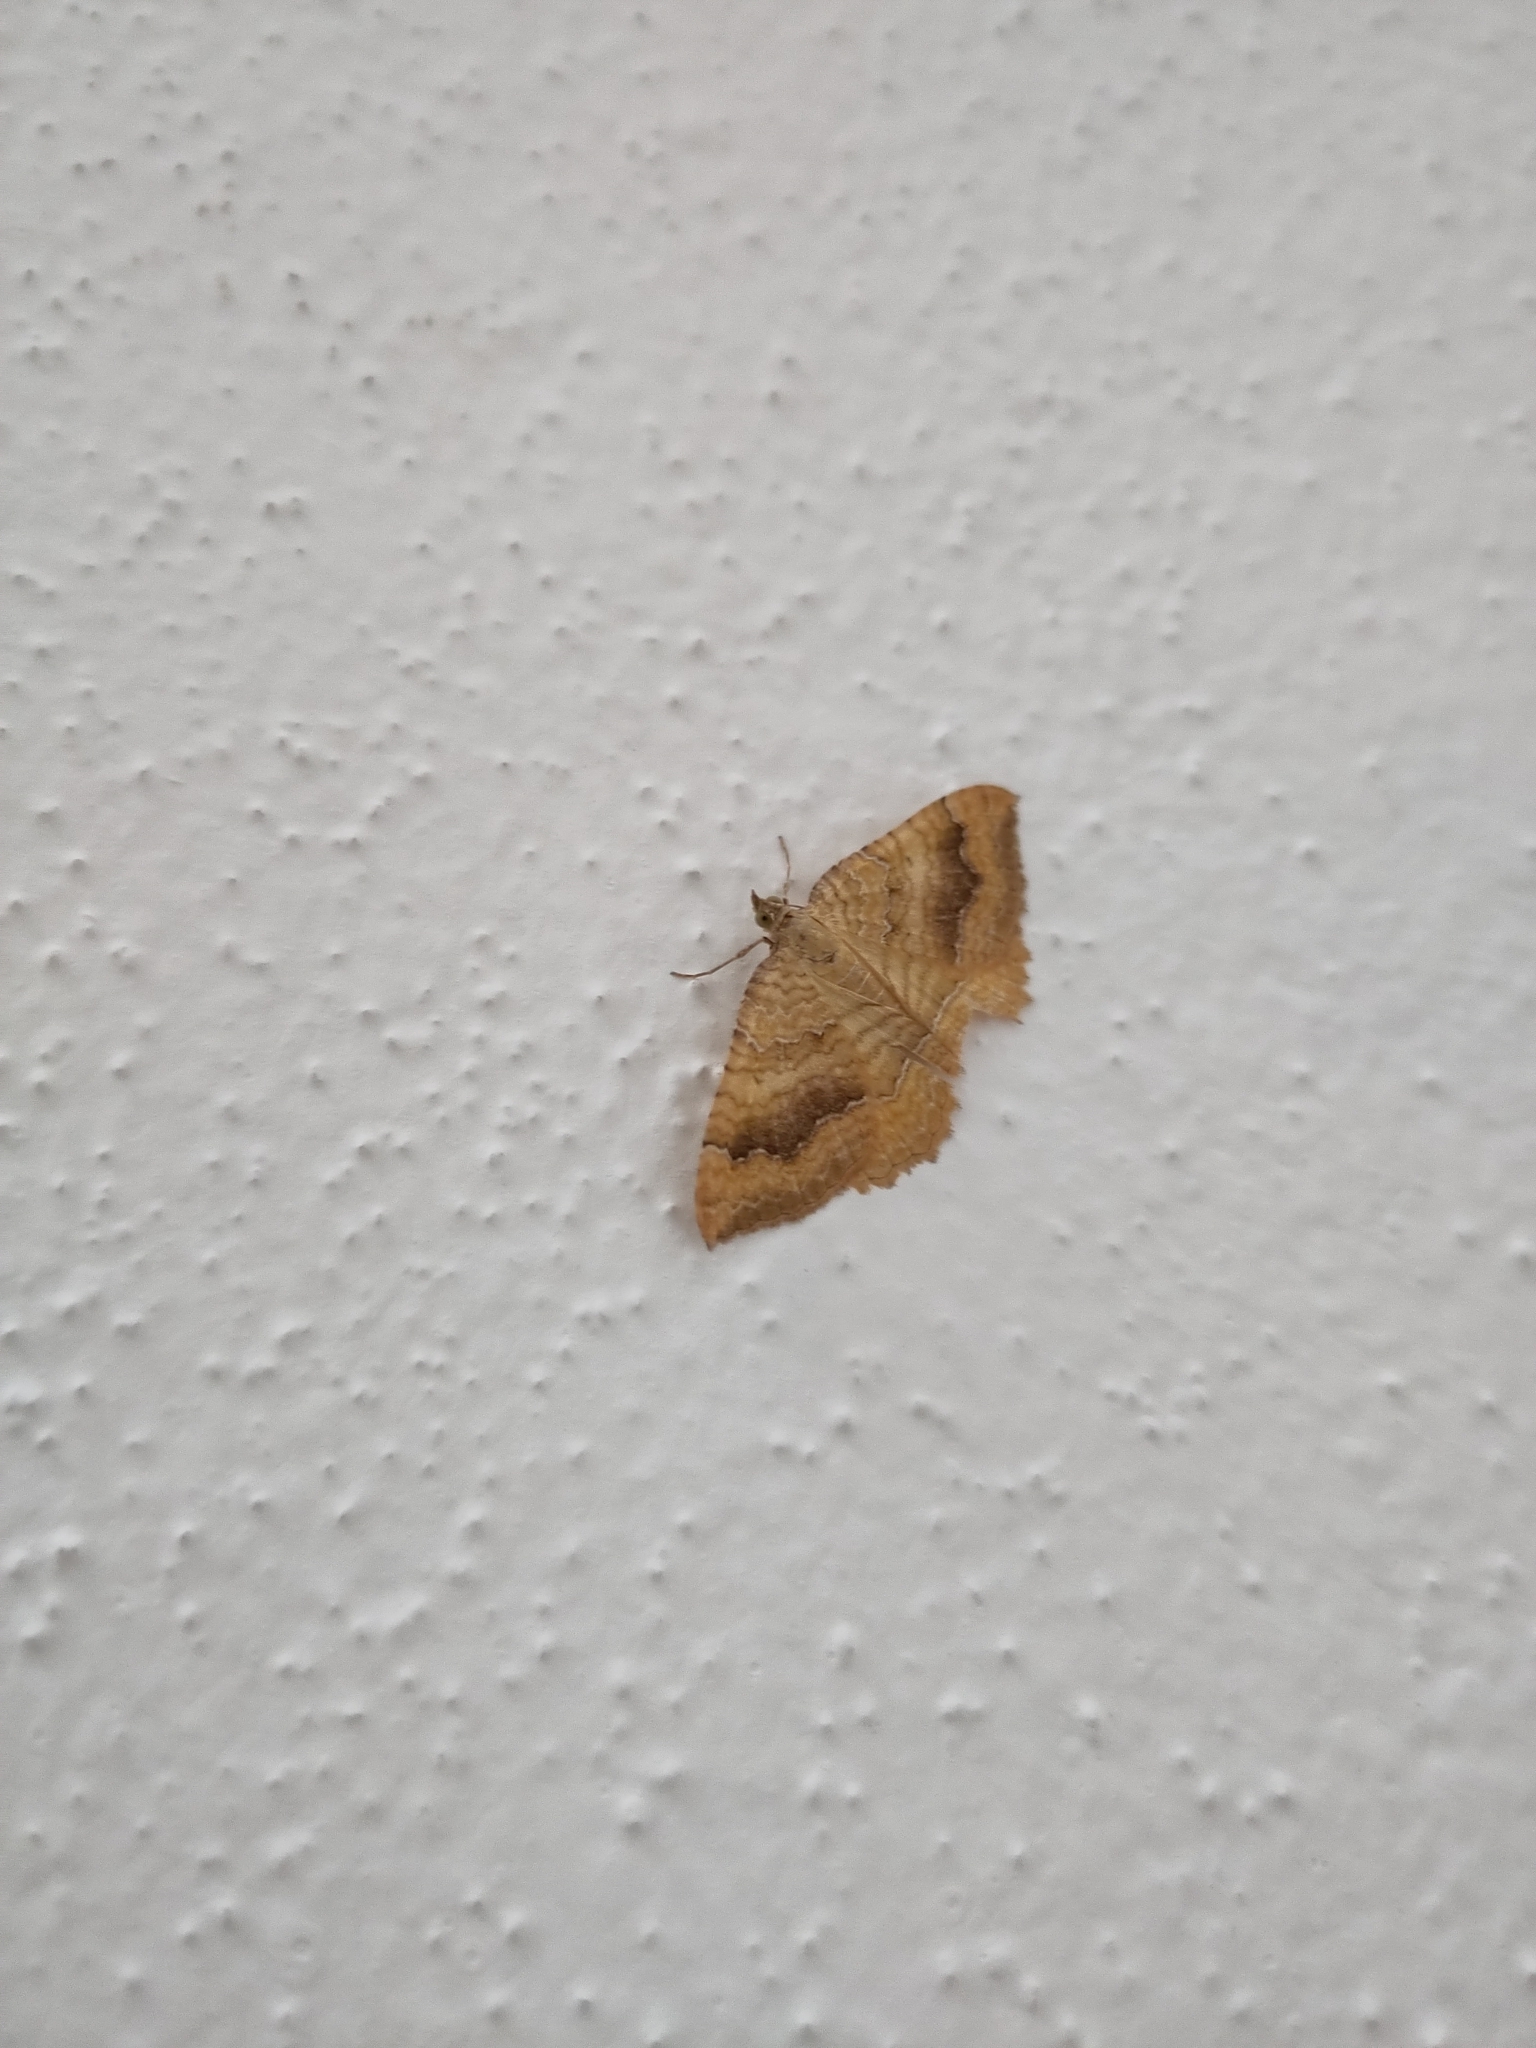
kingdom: Animalia
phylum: Arthropoda
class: Insecta
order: Lepidoptera
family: Geometridae
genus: Camptogramma
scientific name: Camptogramma bilineata
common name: Yellow shell
